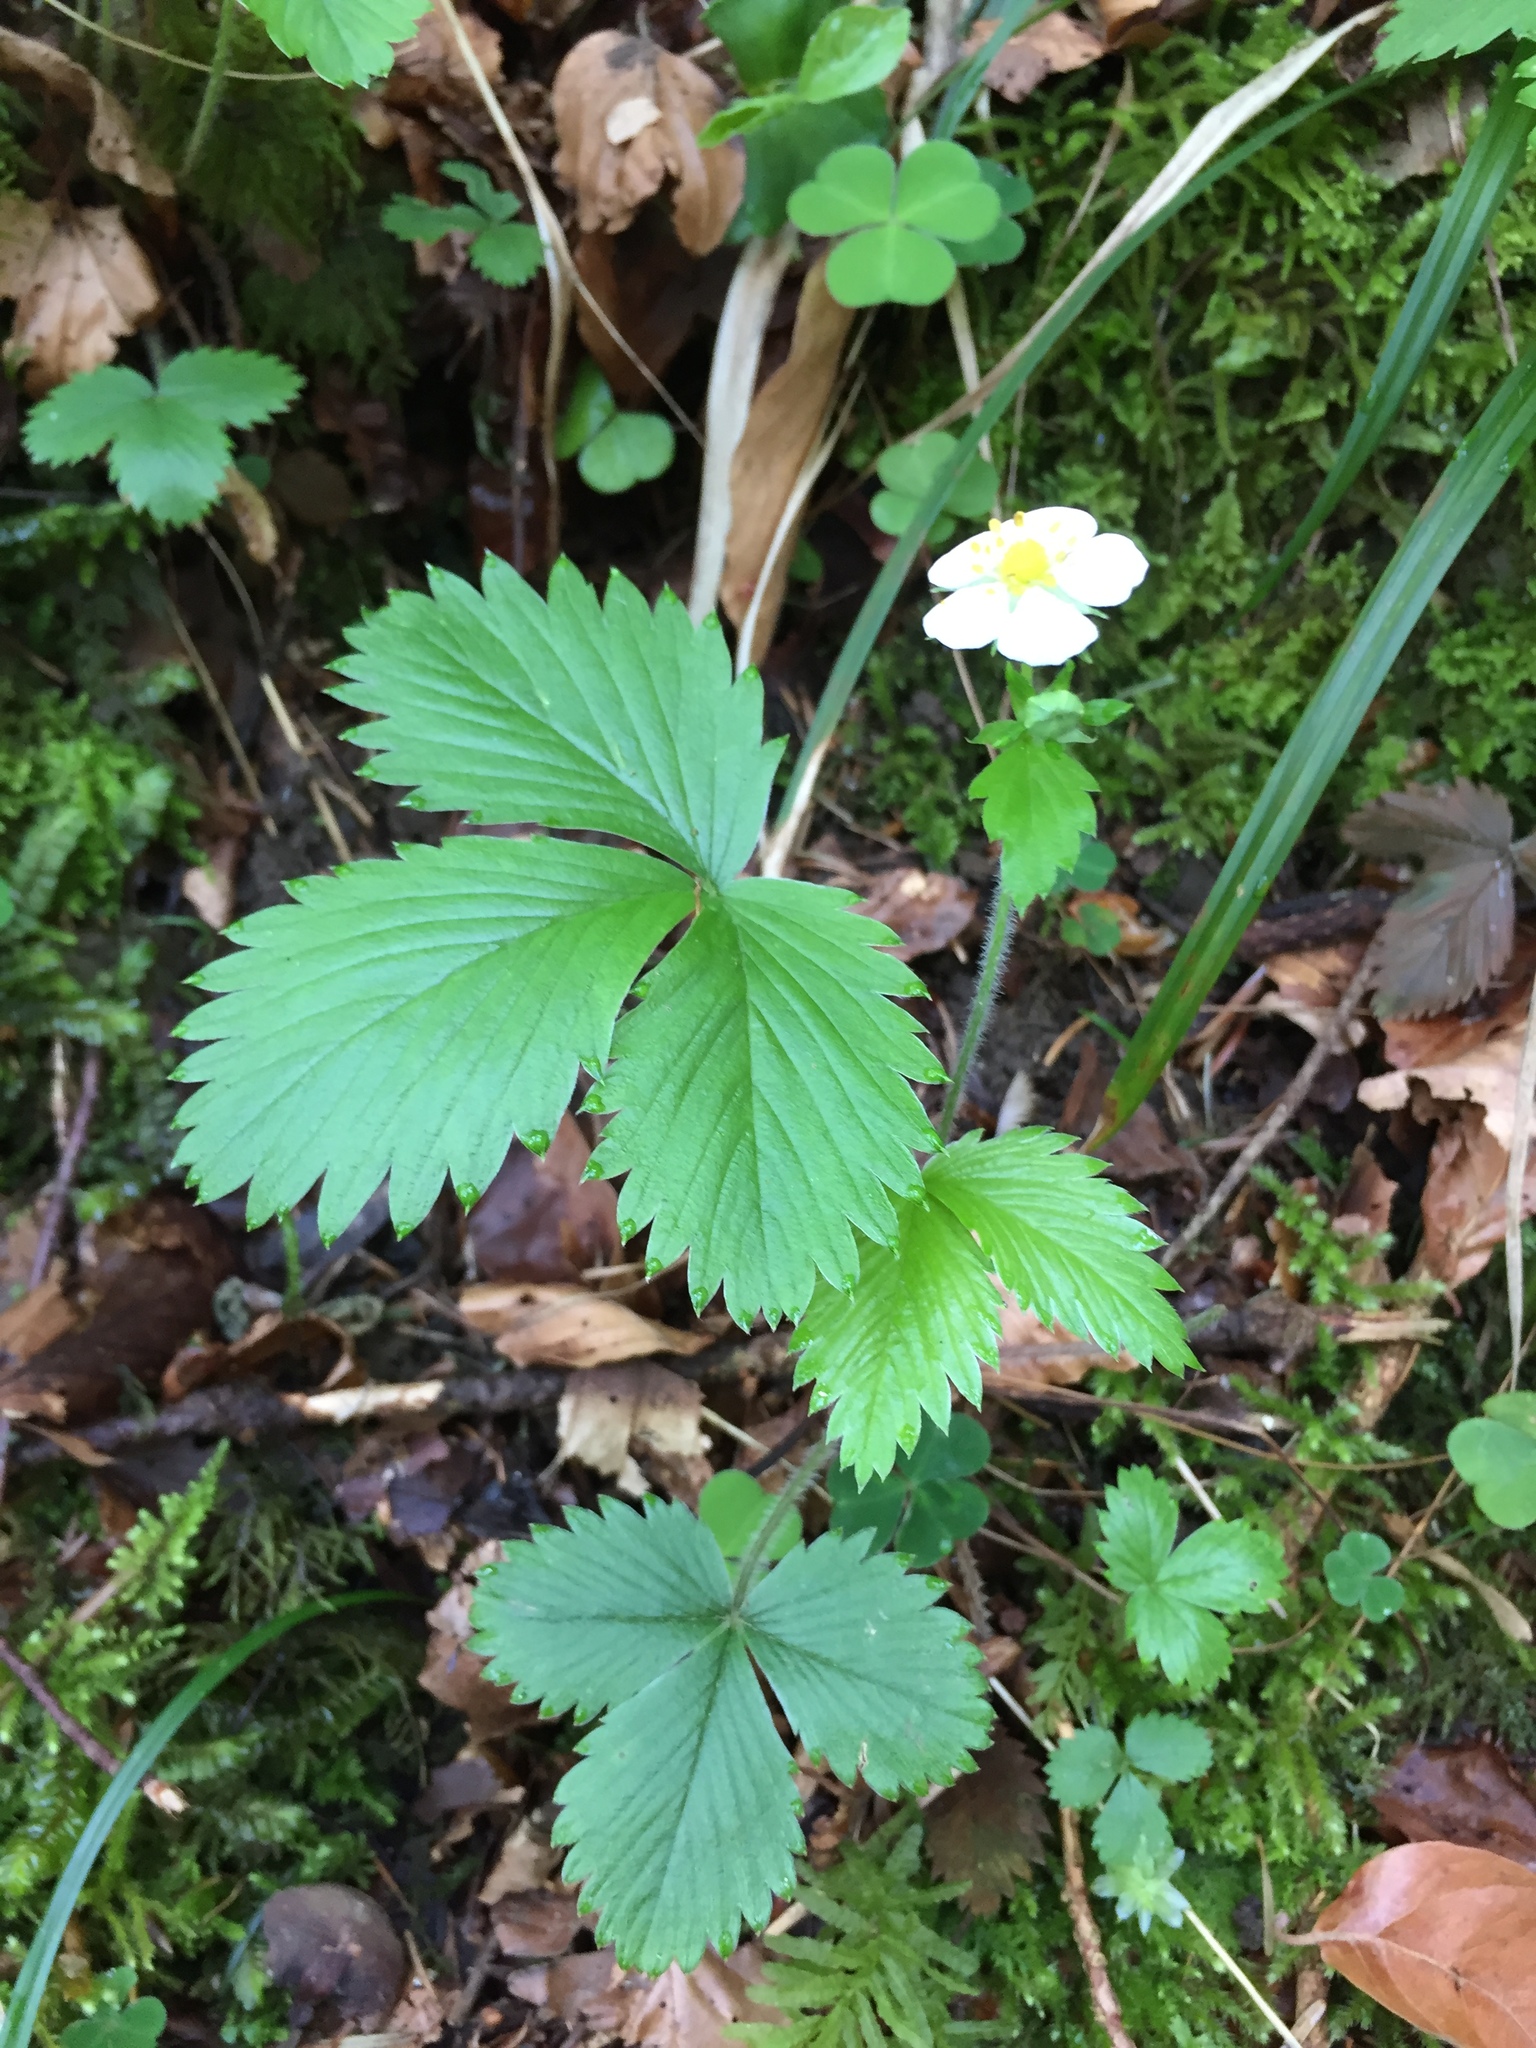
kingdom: Plantae
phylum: Tracheophyta
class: Magnoliopsida
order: Rosales
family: Rosaceae
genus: Fragaria
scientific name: Fragaria vesca
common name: Wild strawberry
